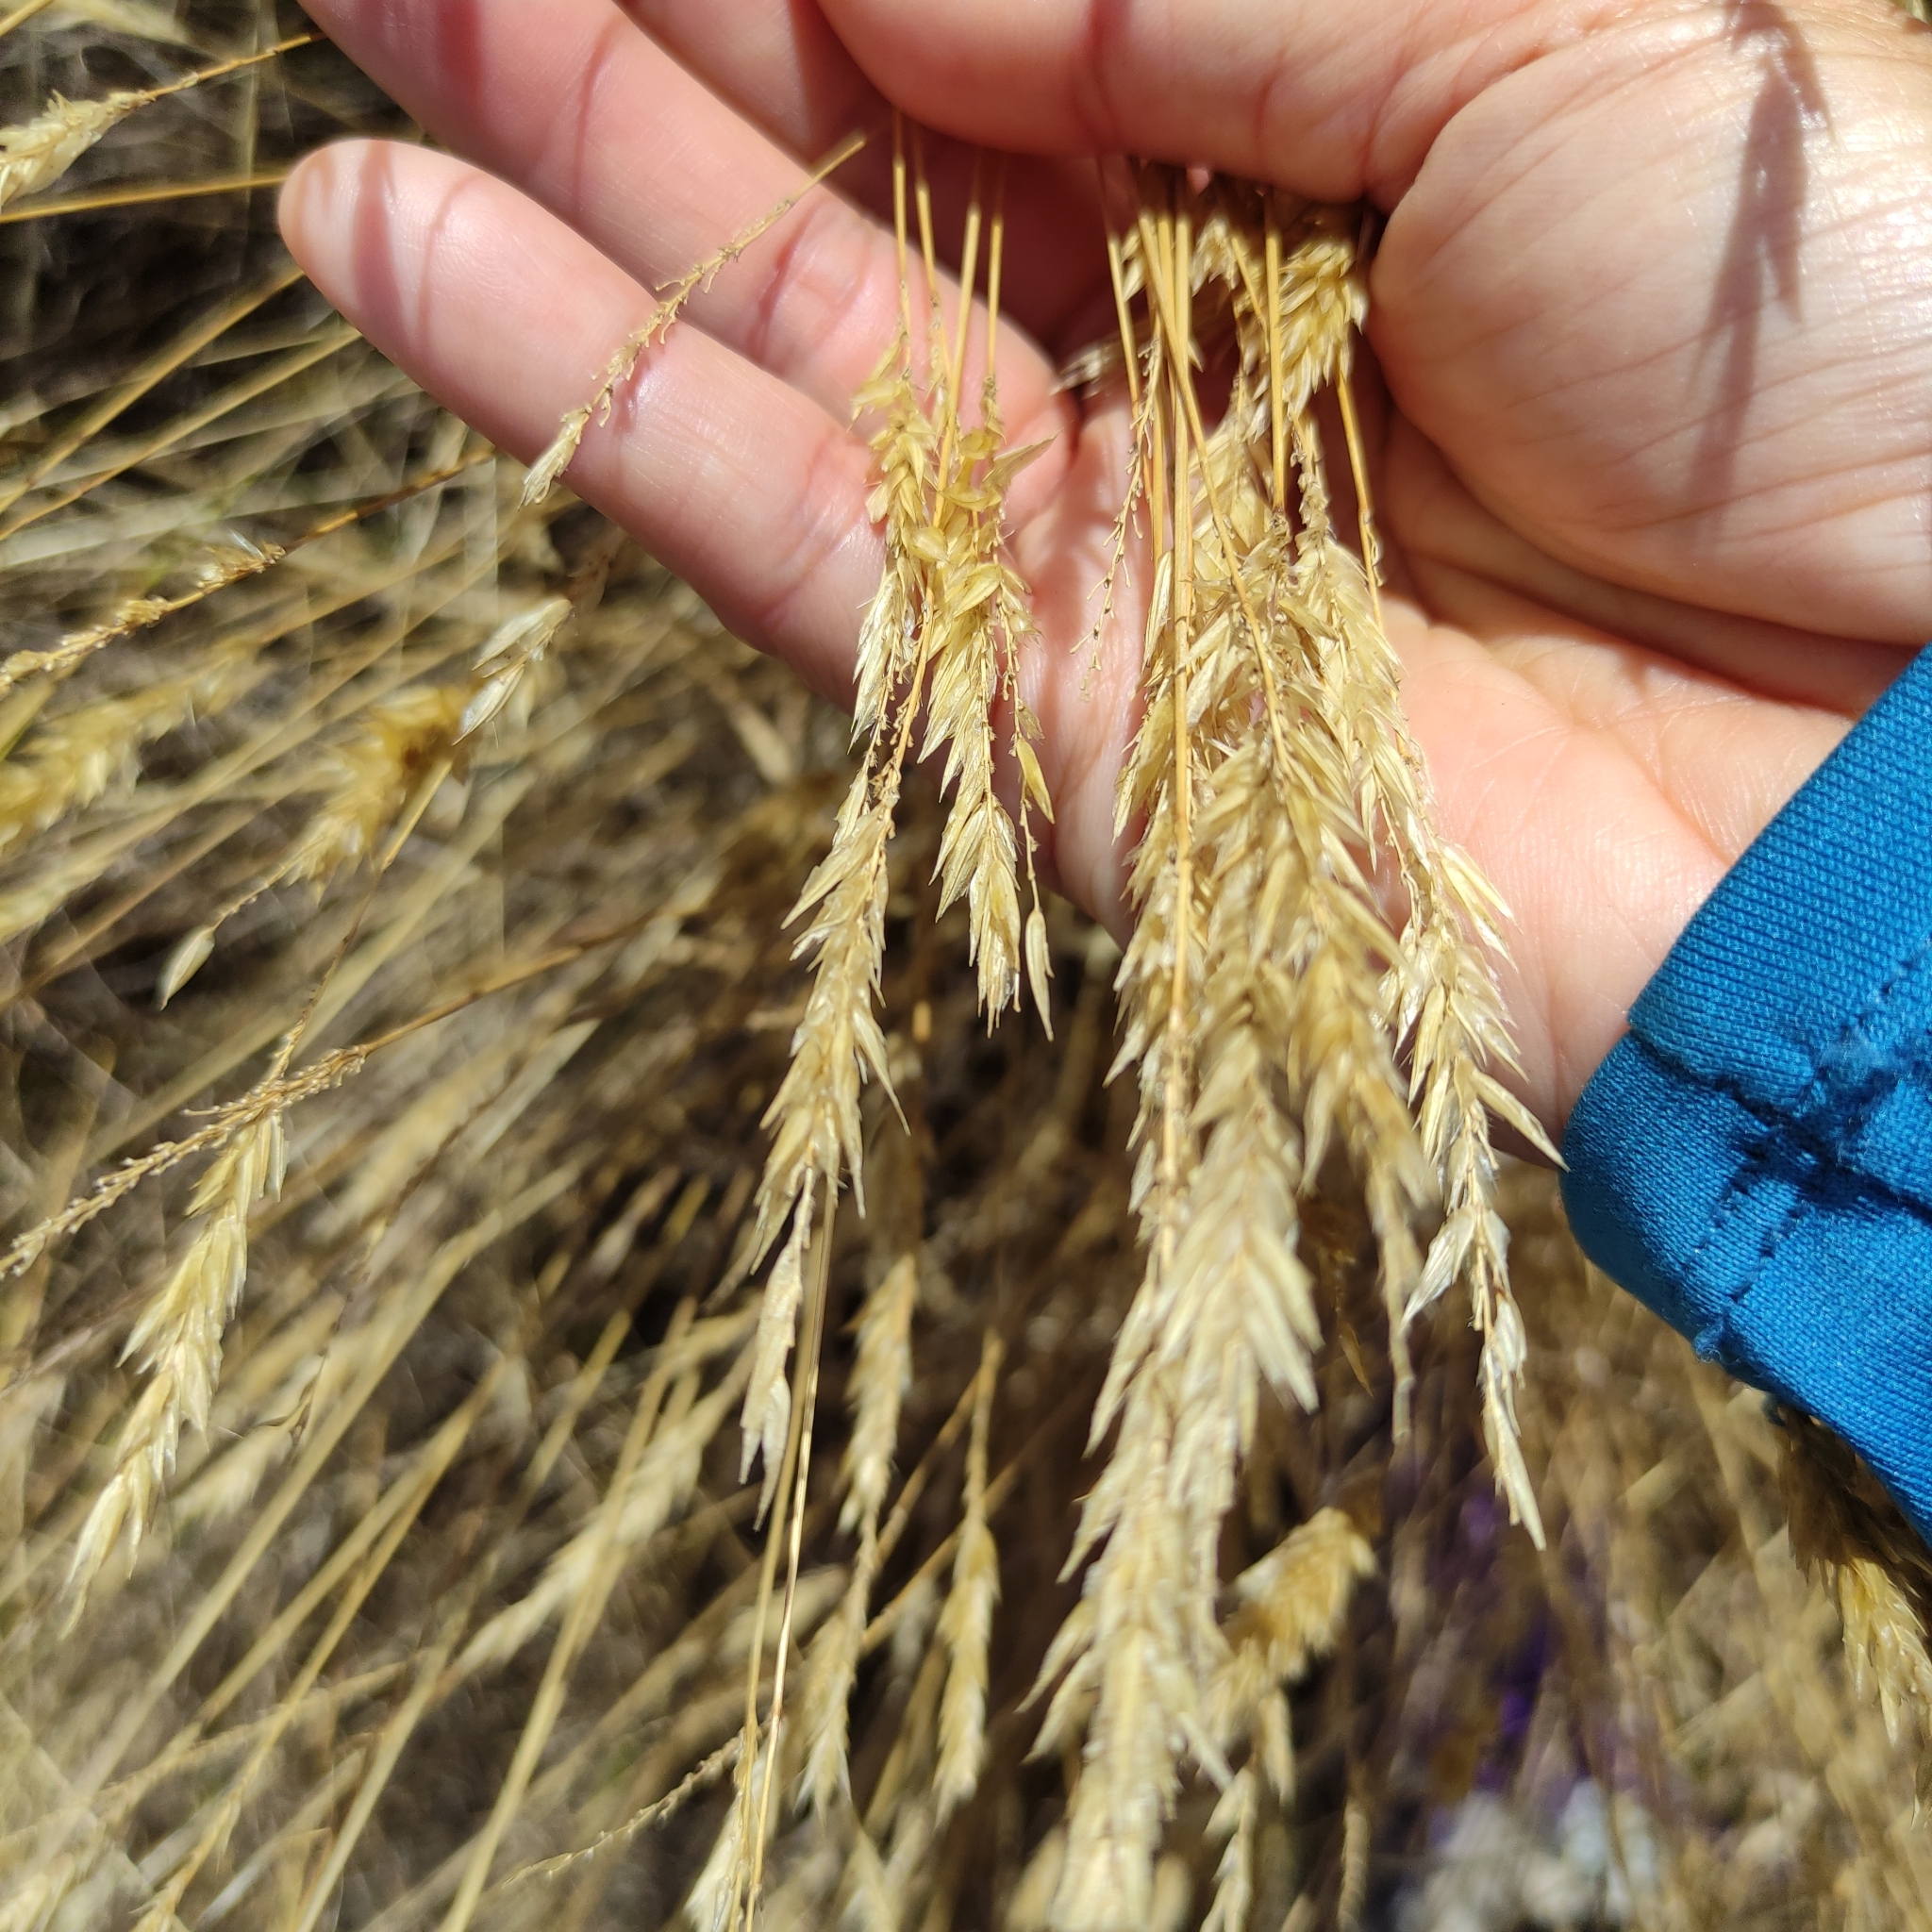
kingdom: Plantae
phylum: Tracheophyta
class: Liliopsida
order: Poales
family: Poaceae
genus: Anthoxanthum
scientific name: Anthoxanthum odoratum
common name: Sweet vernalgrass
